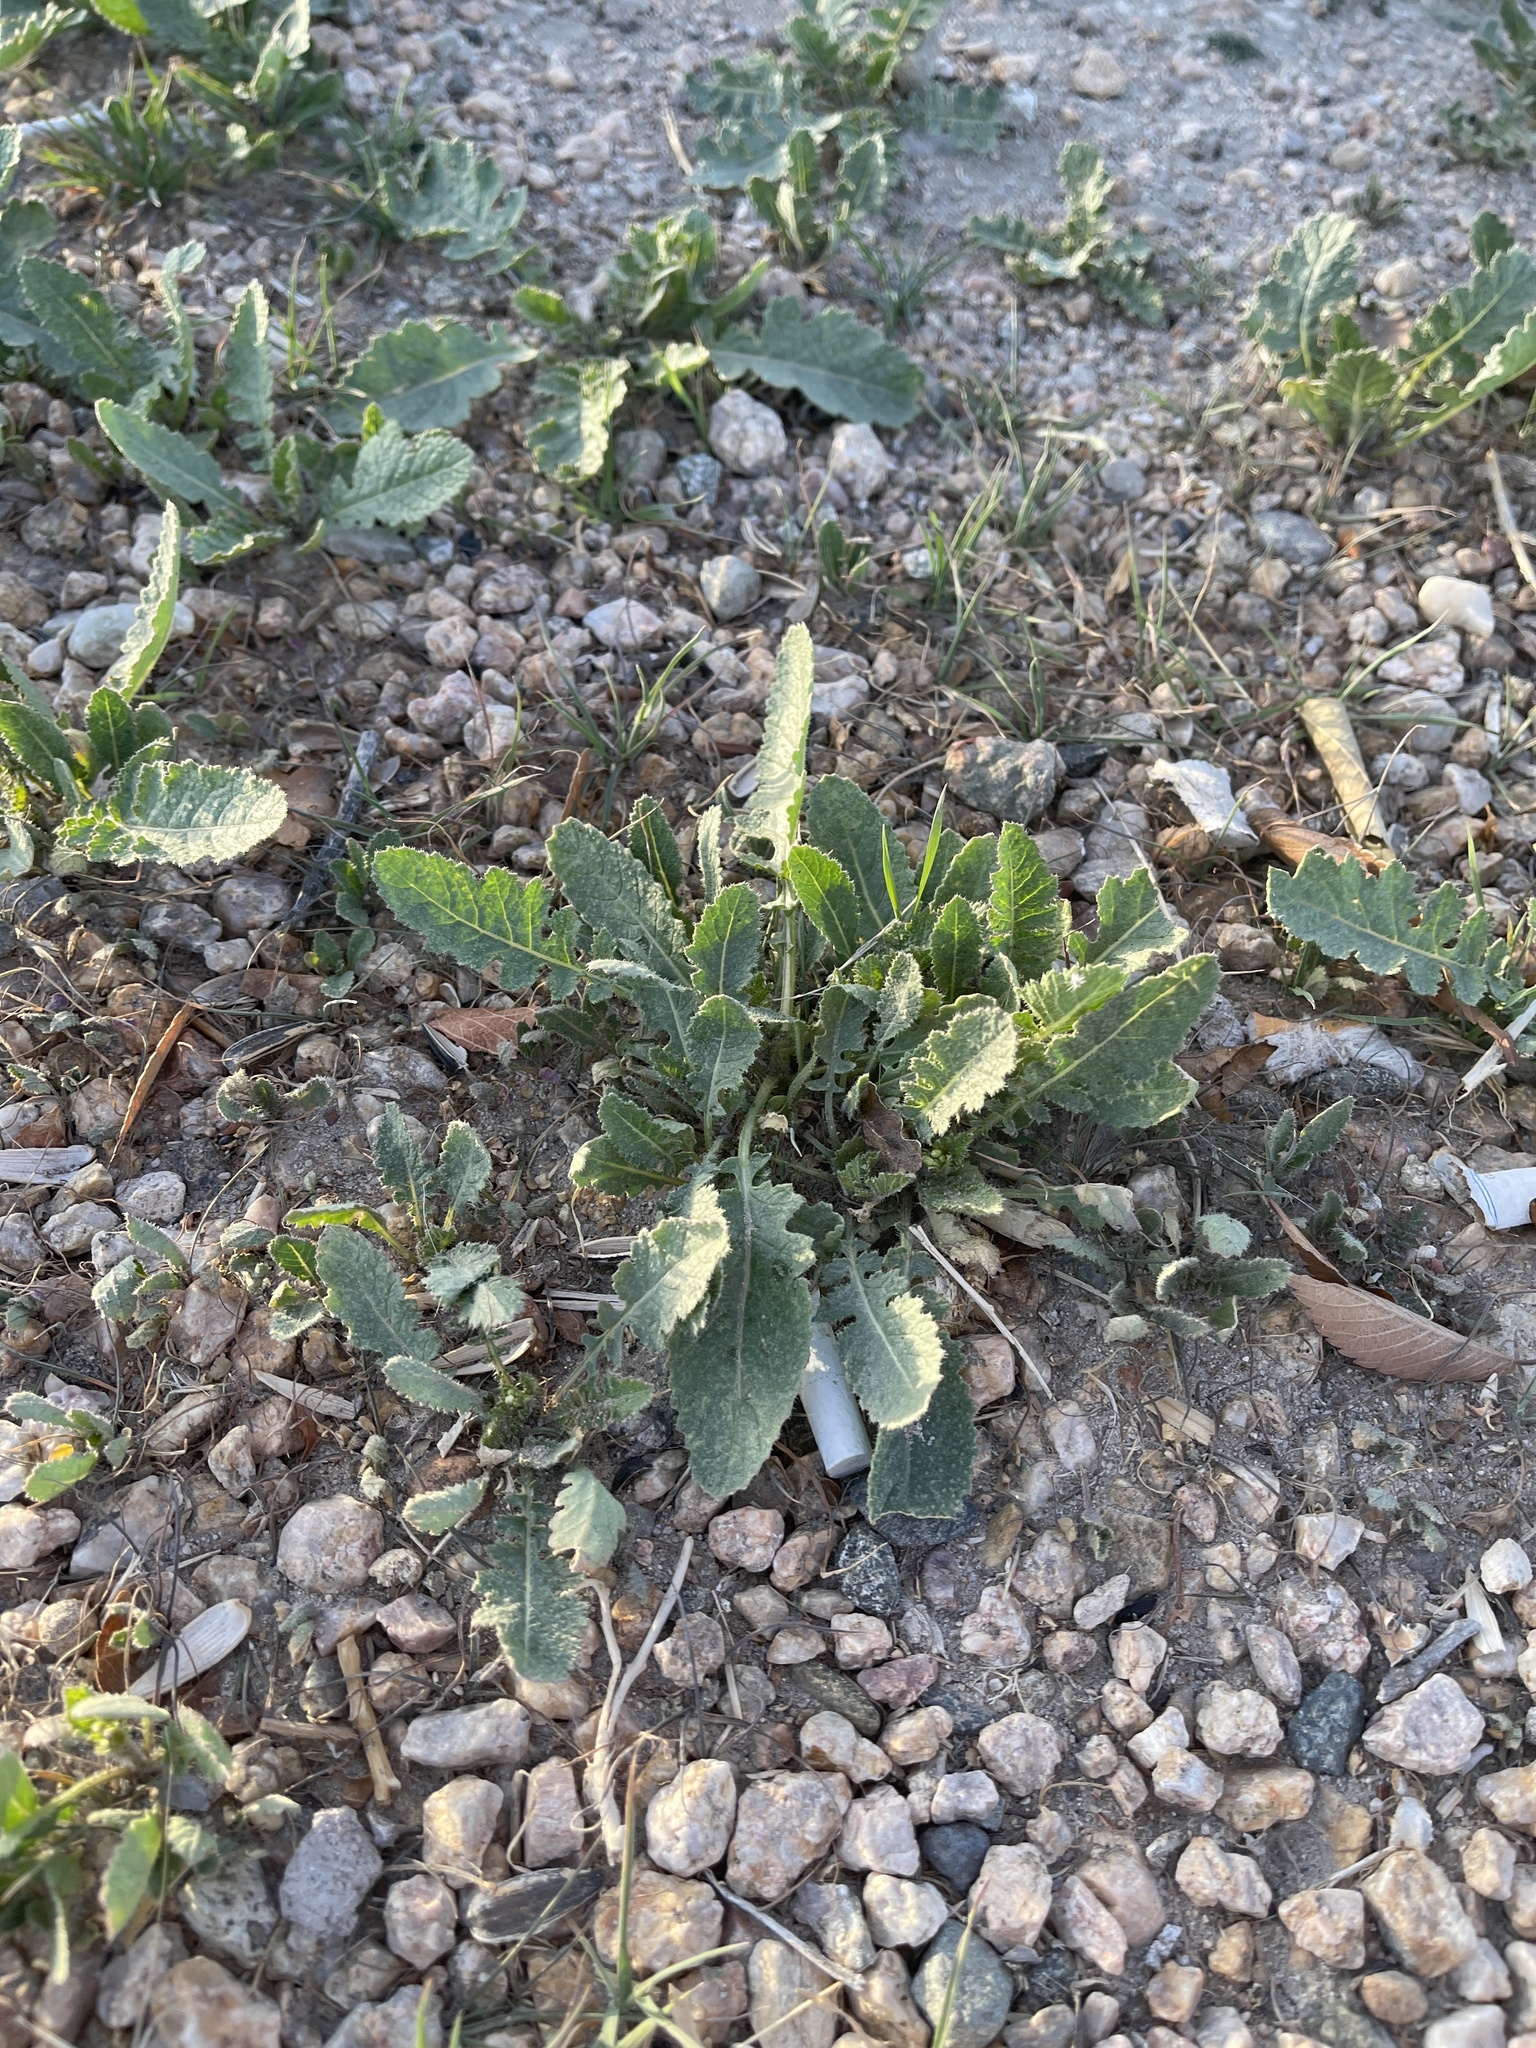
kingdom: Plantae
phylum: Tracheophyta
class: Magnoliopsida
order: Brassicales
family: Brassicaceae
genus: Brassica
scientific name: Brassica tournefortii
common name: Pale cabbage
